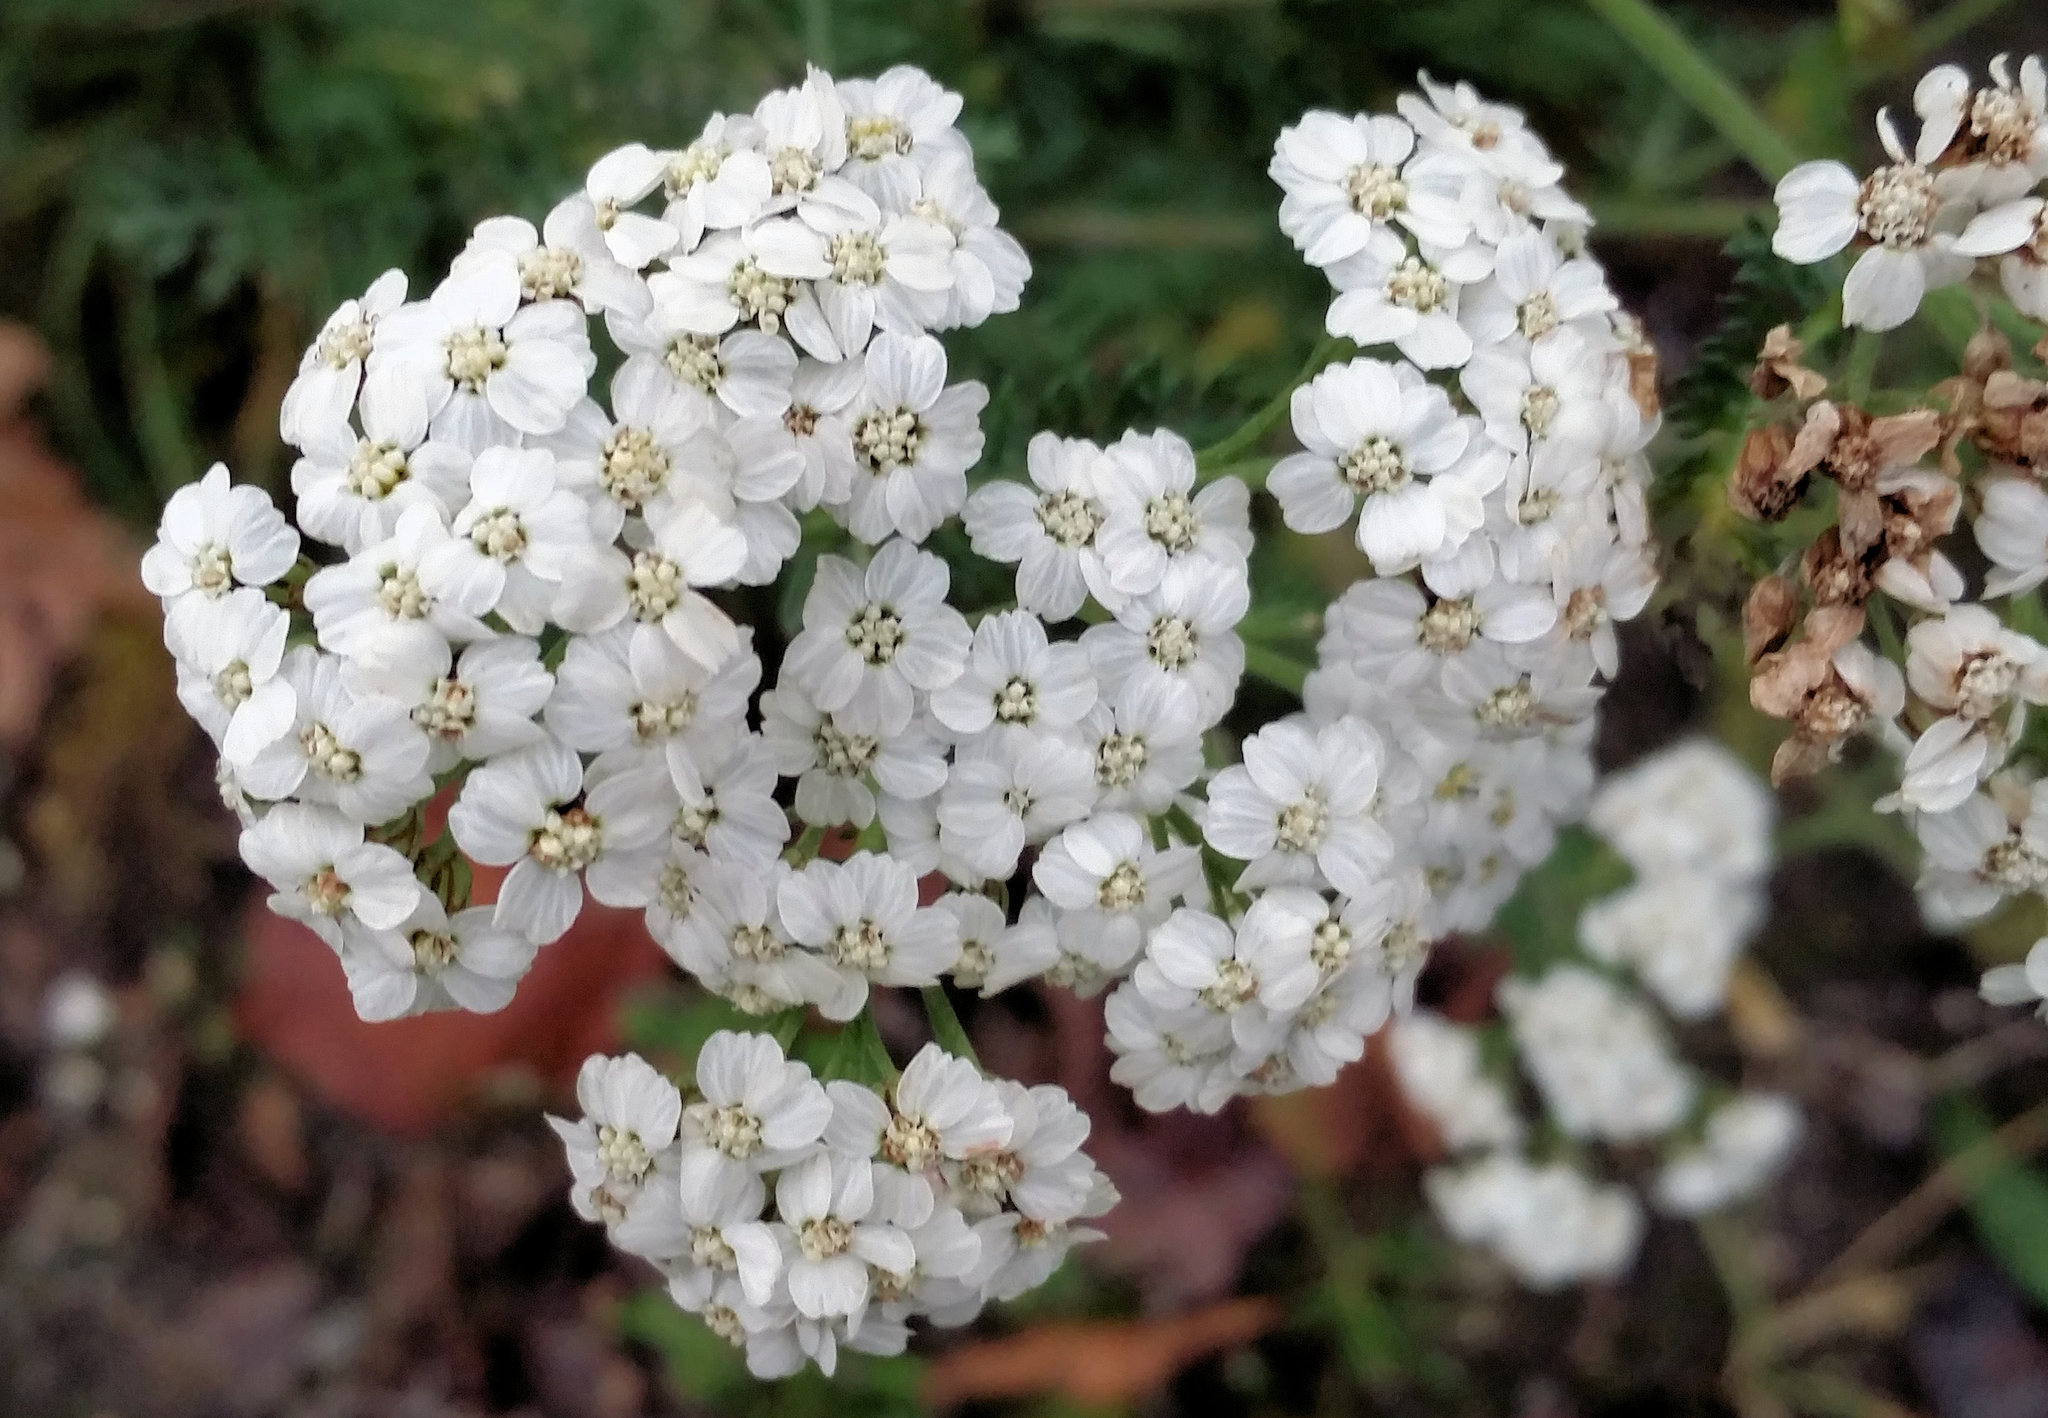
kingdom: Plantae
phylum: Tracheophyta
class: Magnoliopsida
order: Asterales
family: Asteraceae
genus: Achillea
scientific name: Achillea millefolium
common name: Yarrow
